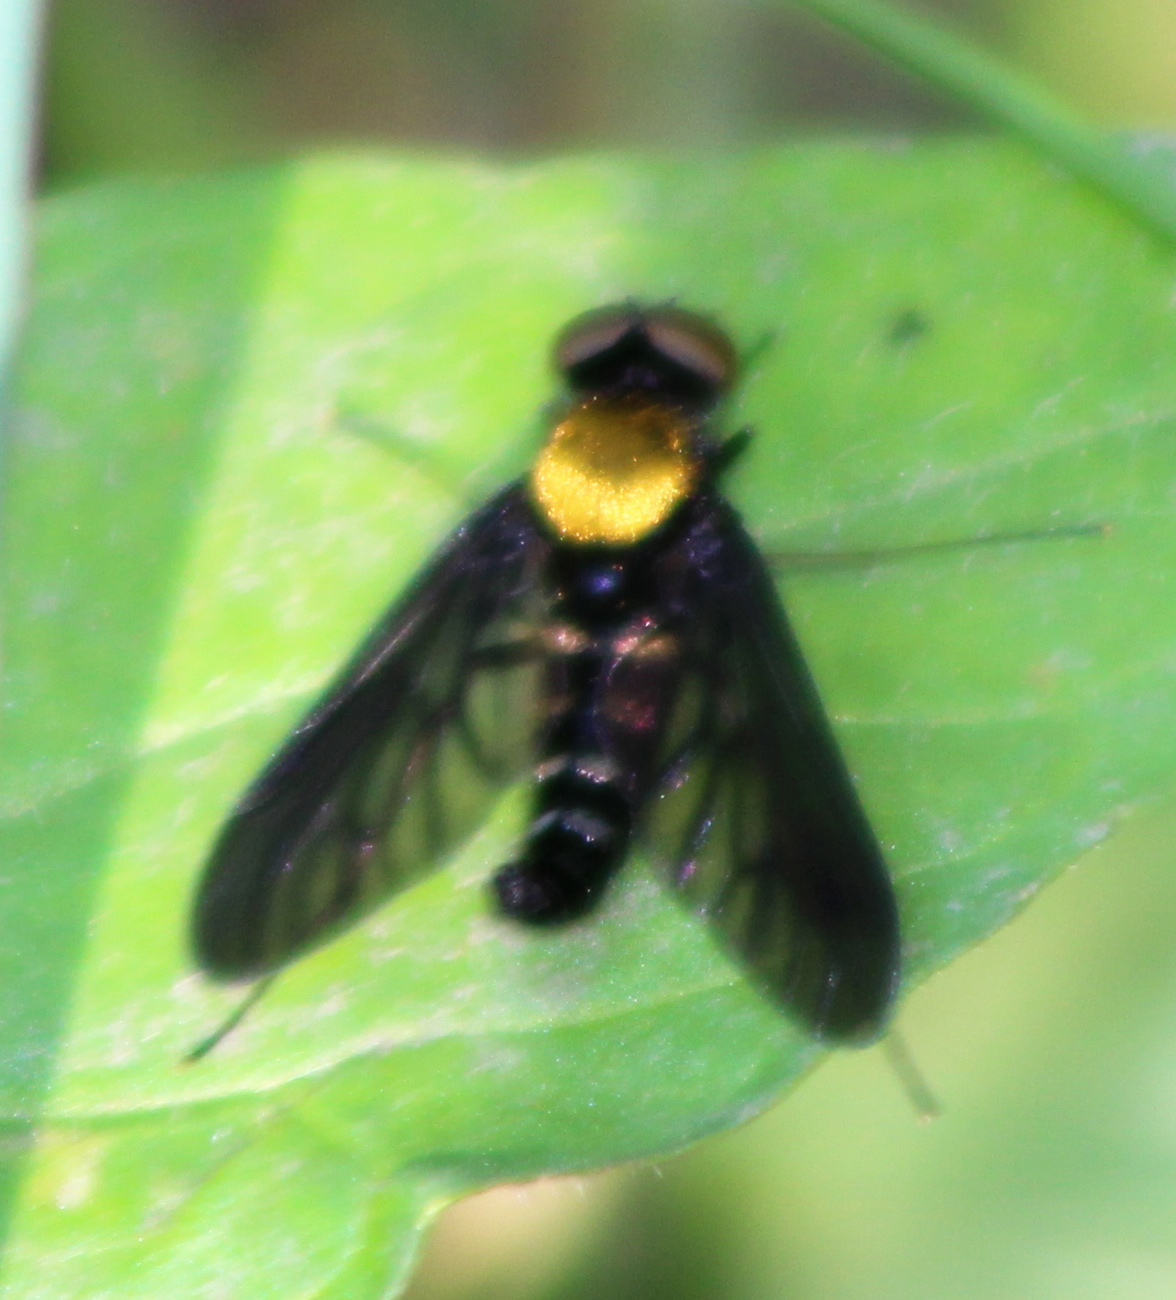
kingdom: Animalia
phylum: Arthropoda
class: Insecta
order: Diptera
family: Rhagionidae
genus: Chrysopilus
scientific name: Chrysopilus thoracicus
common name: Golden-backed snipe fly
